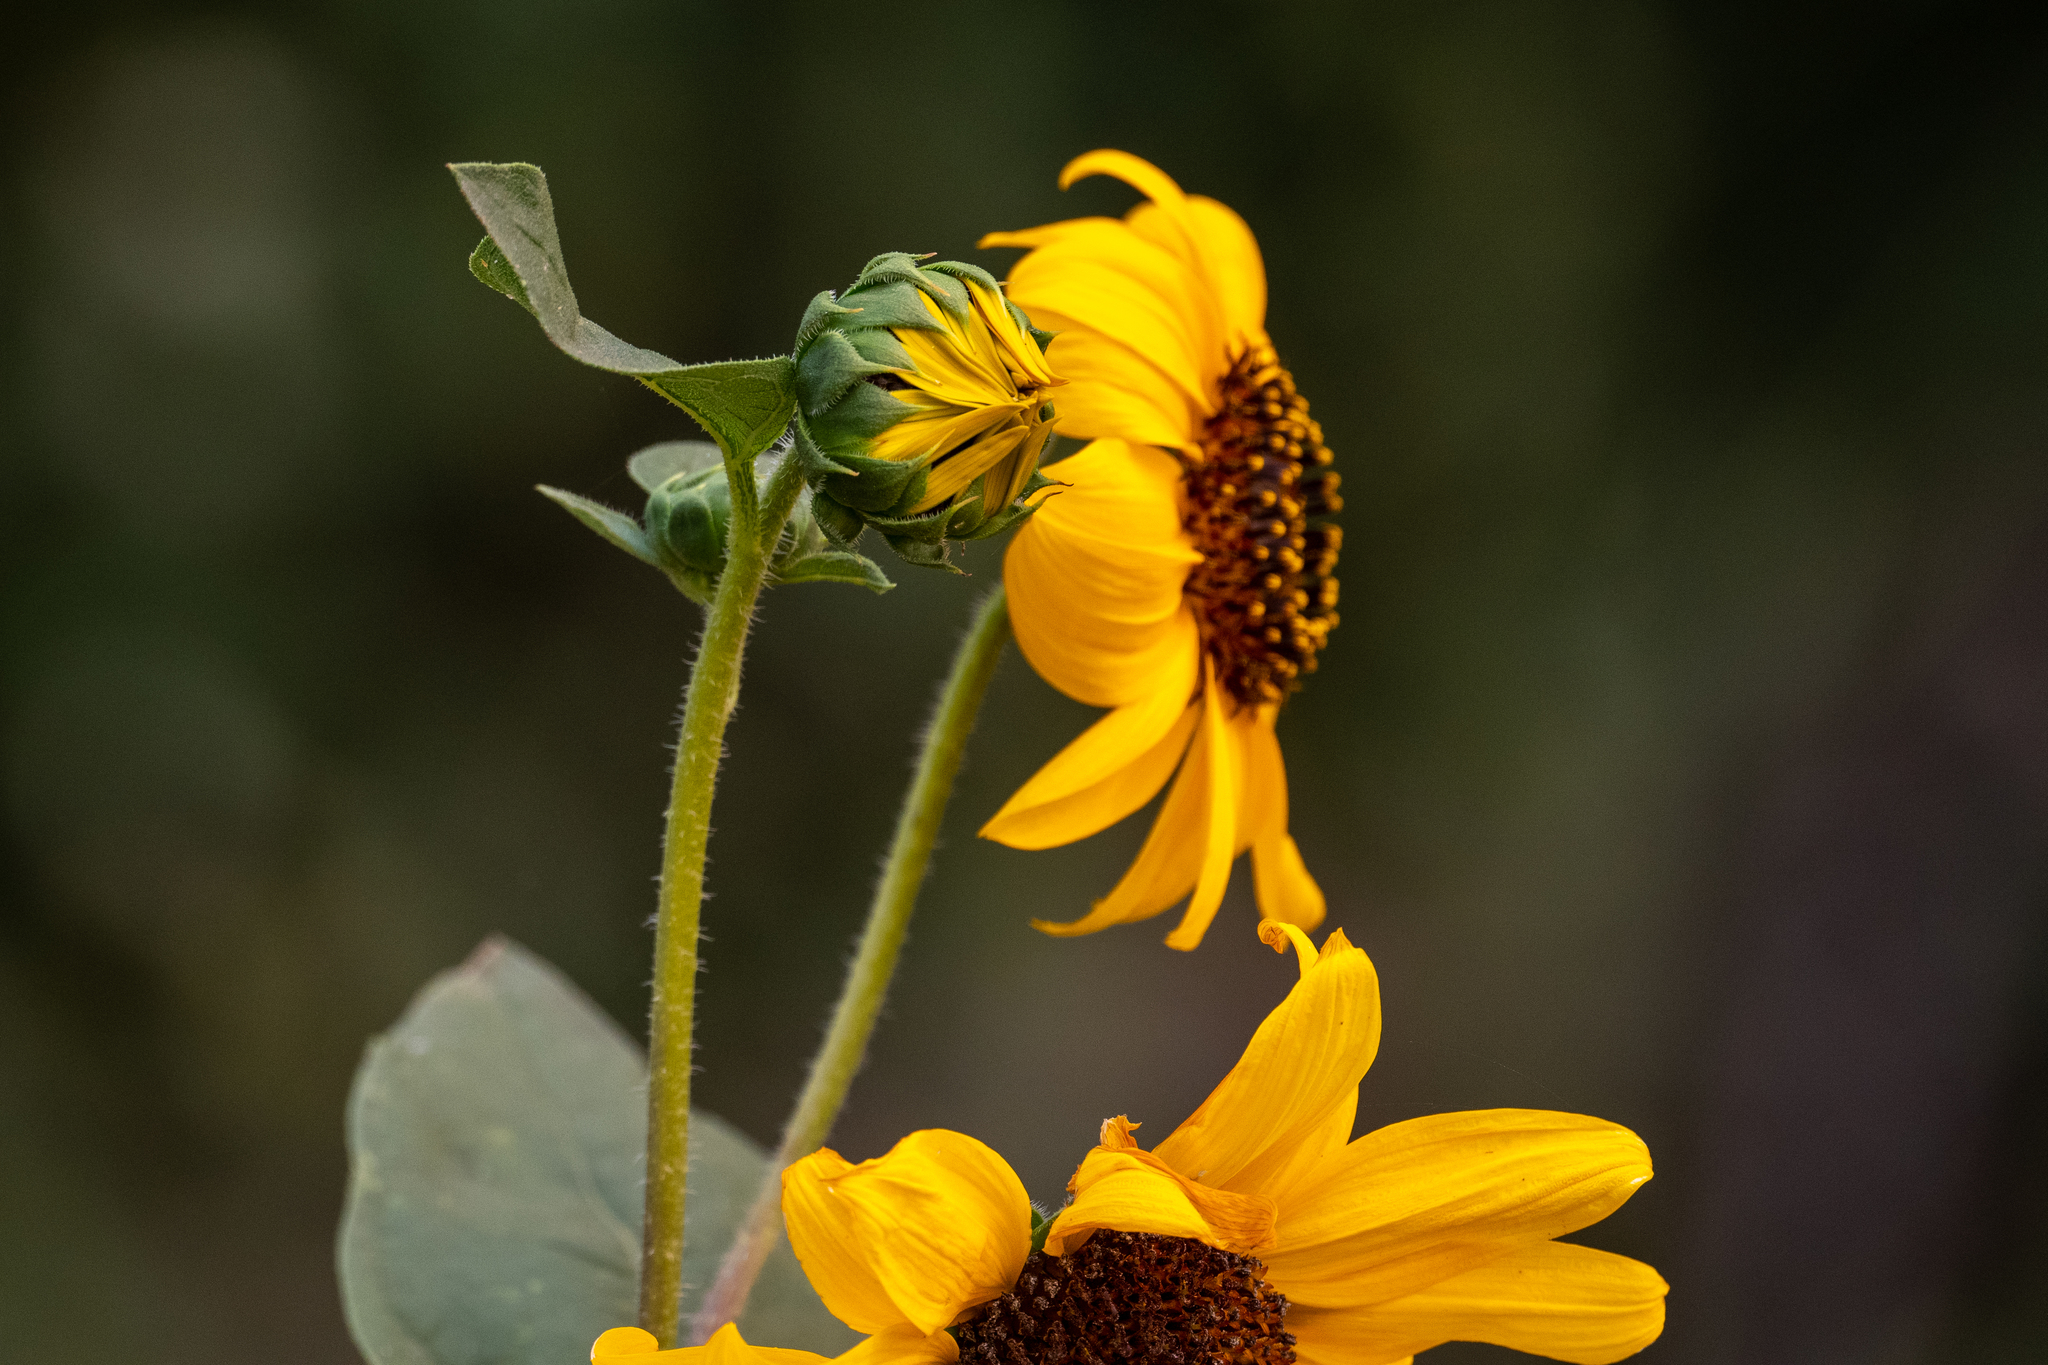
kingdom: Plantae
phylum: Tracheophyta
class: Magnoliopsida
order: Asterales
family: Asteraceae
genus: Helianthus
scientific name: Helianthus annuus
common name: Sunflower
